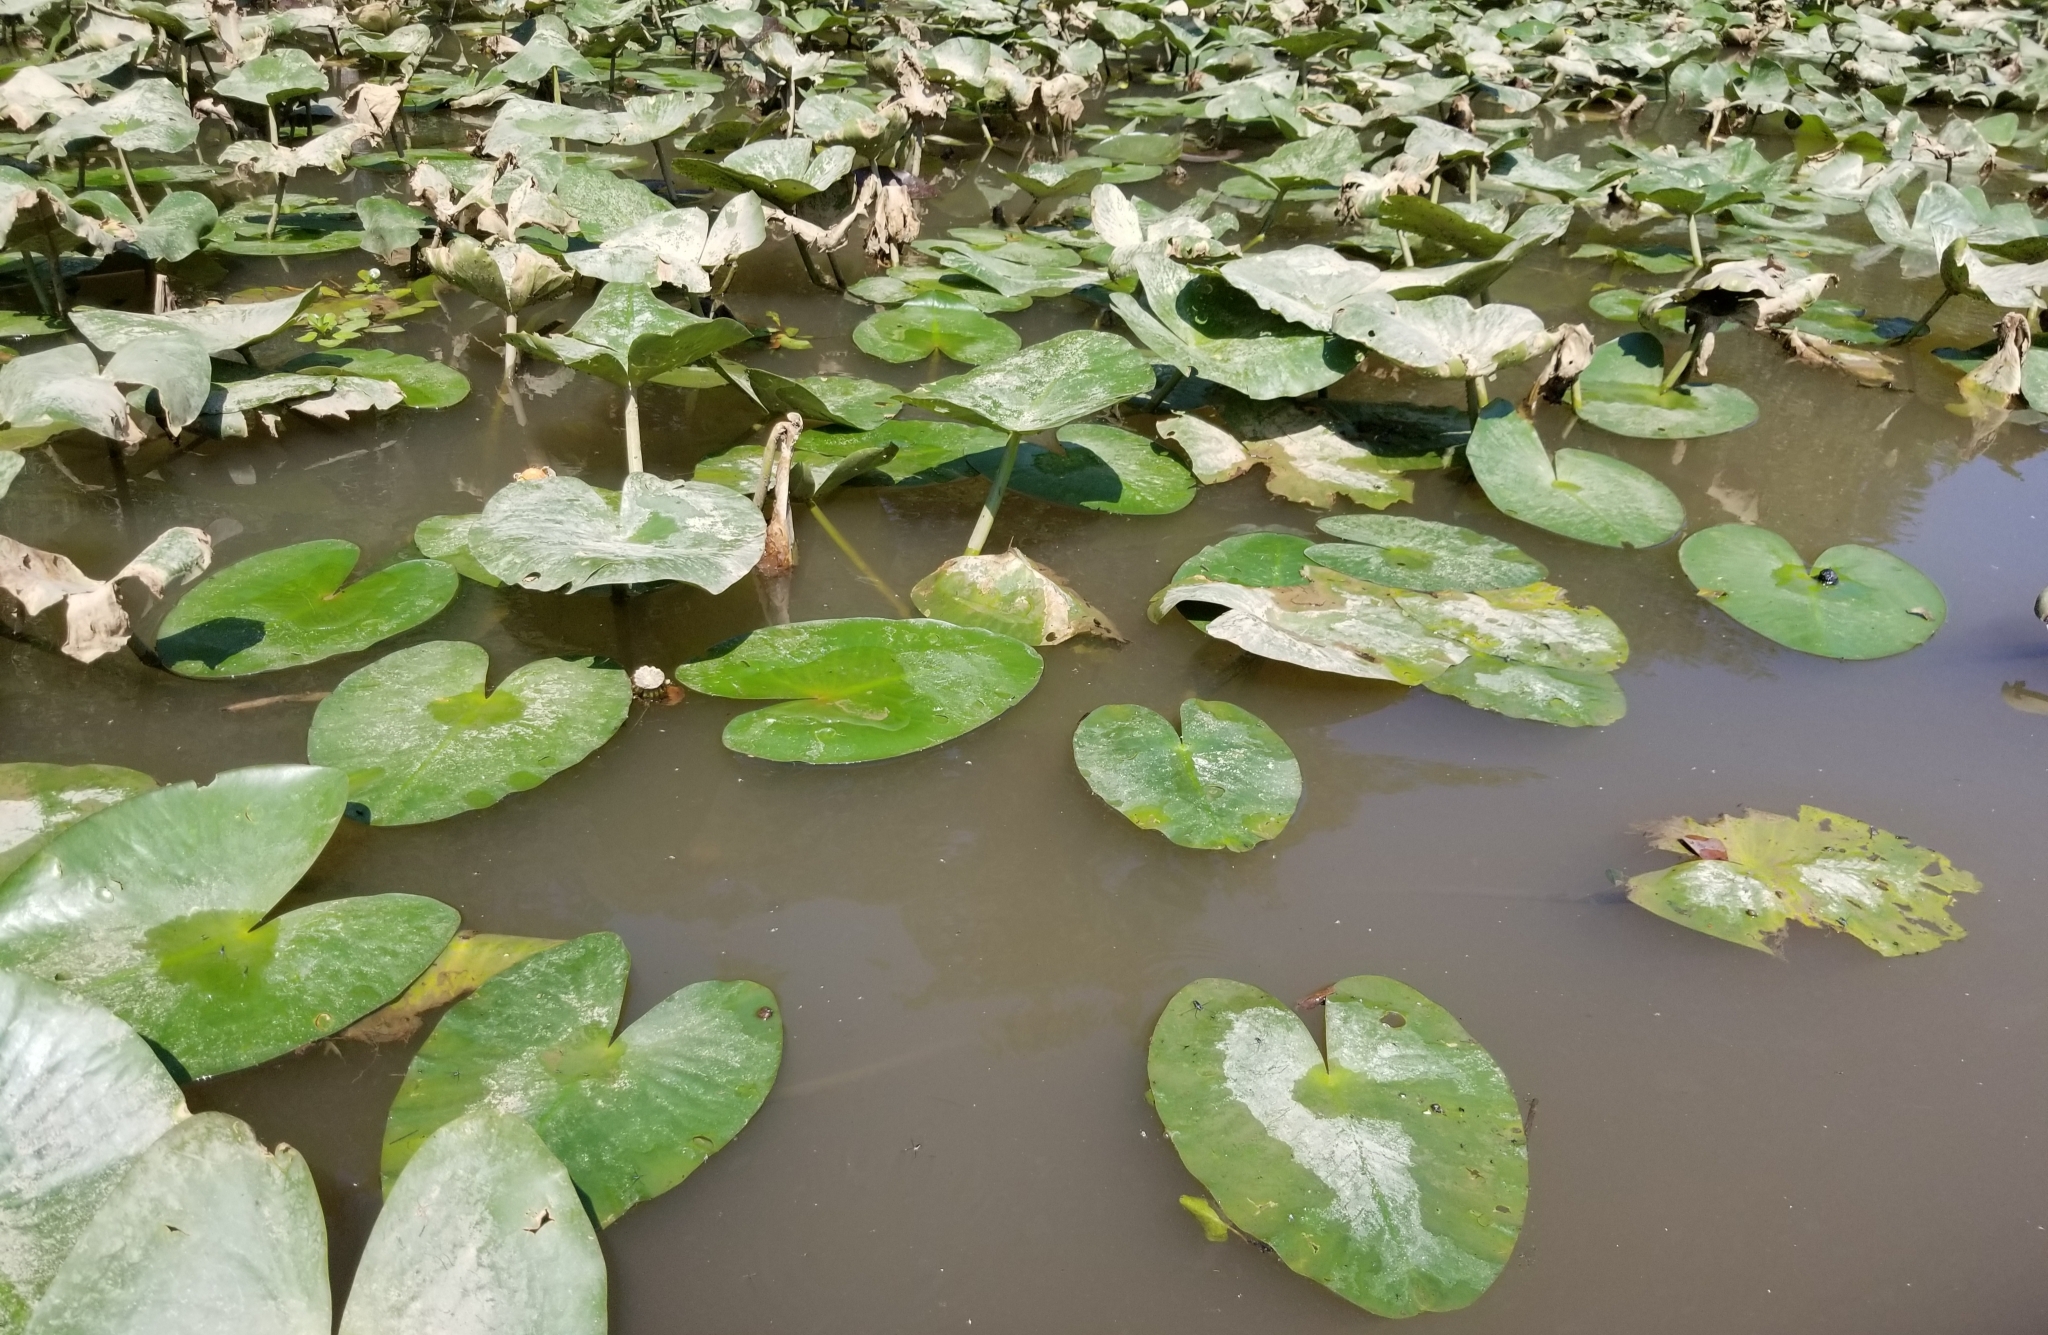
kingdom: Plantae
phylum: Tracheophyta
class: Magnoliopsida
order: Nymphaeales
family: Nymphaeaceae
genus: Nuphar
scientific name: Nuphar advena
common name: Spatter-dock
